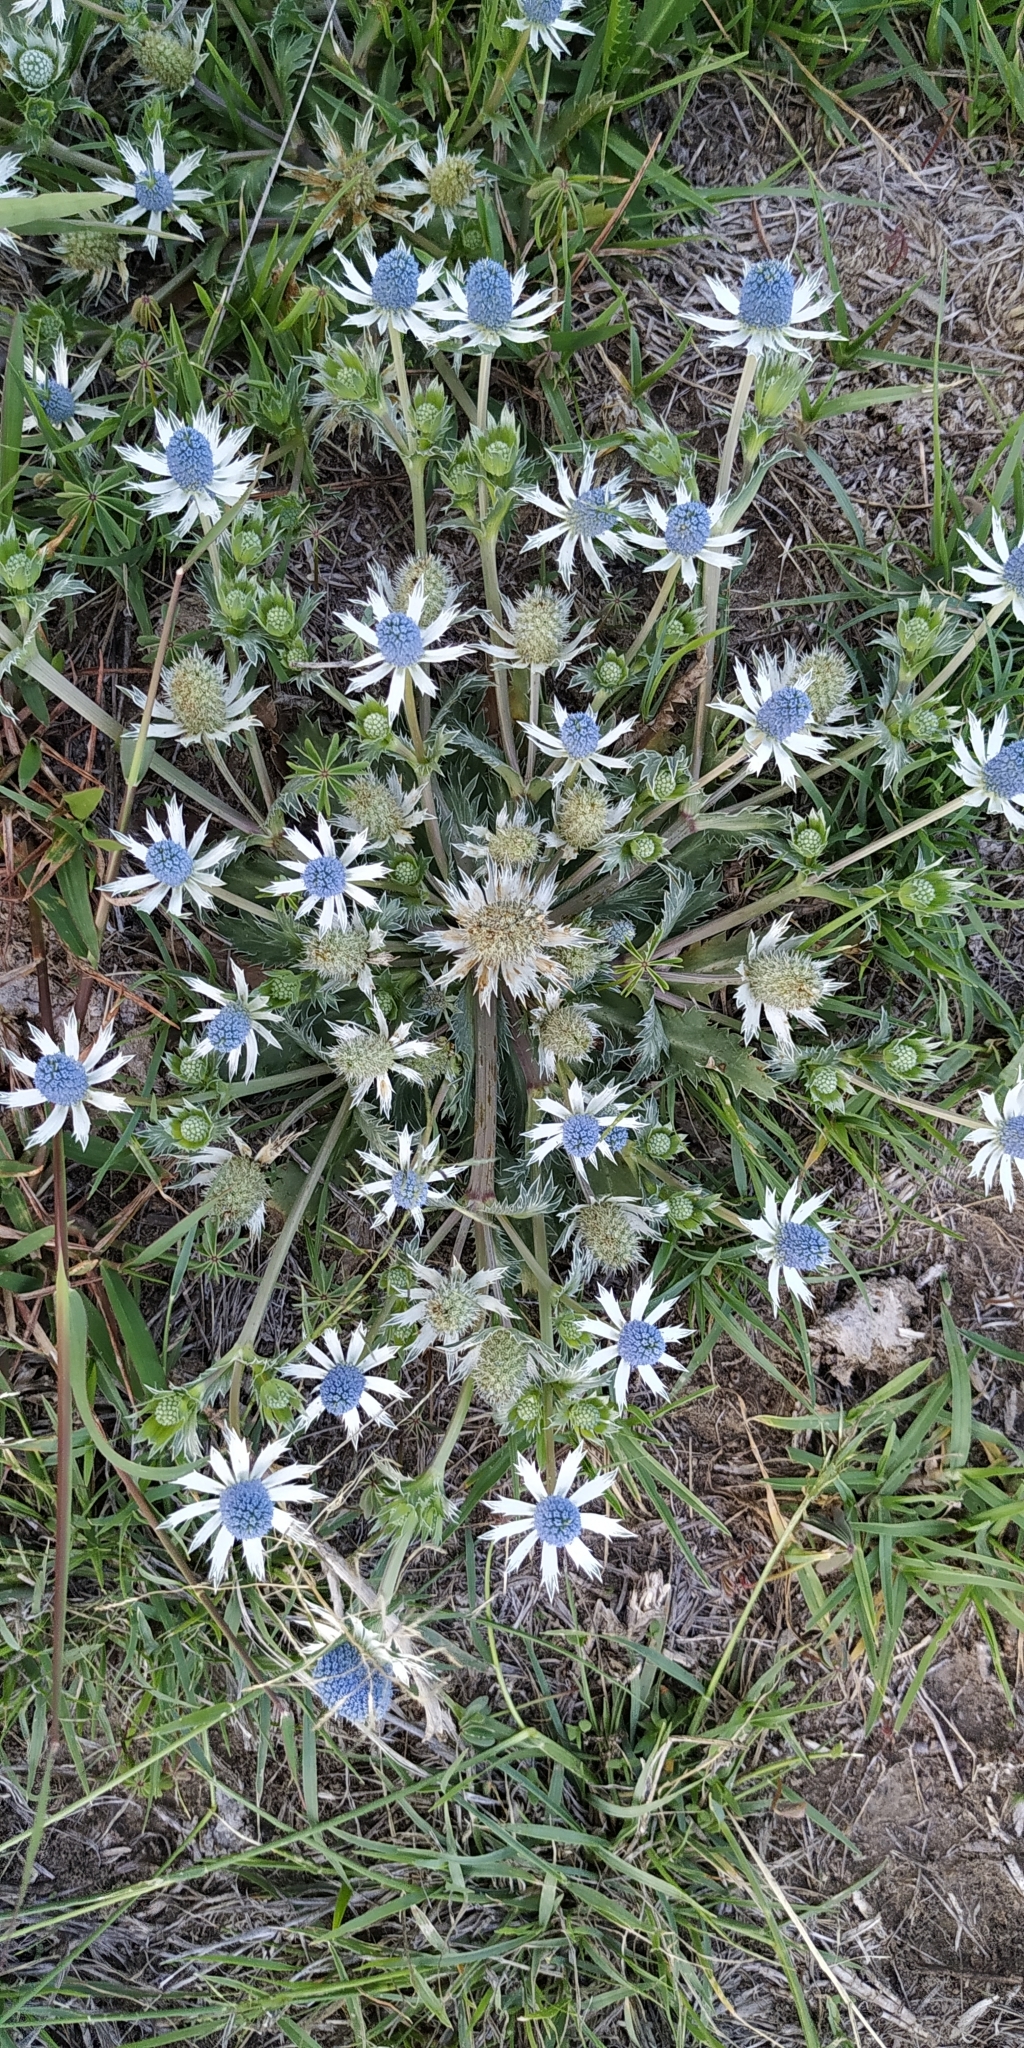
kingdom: Plantae
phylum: Tracheophyta
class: Magnoliopsida
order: Apiales
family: Apiaceae
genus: Eryngium
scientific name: Eryngium heterophyllum
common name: Mexican thistle
